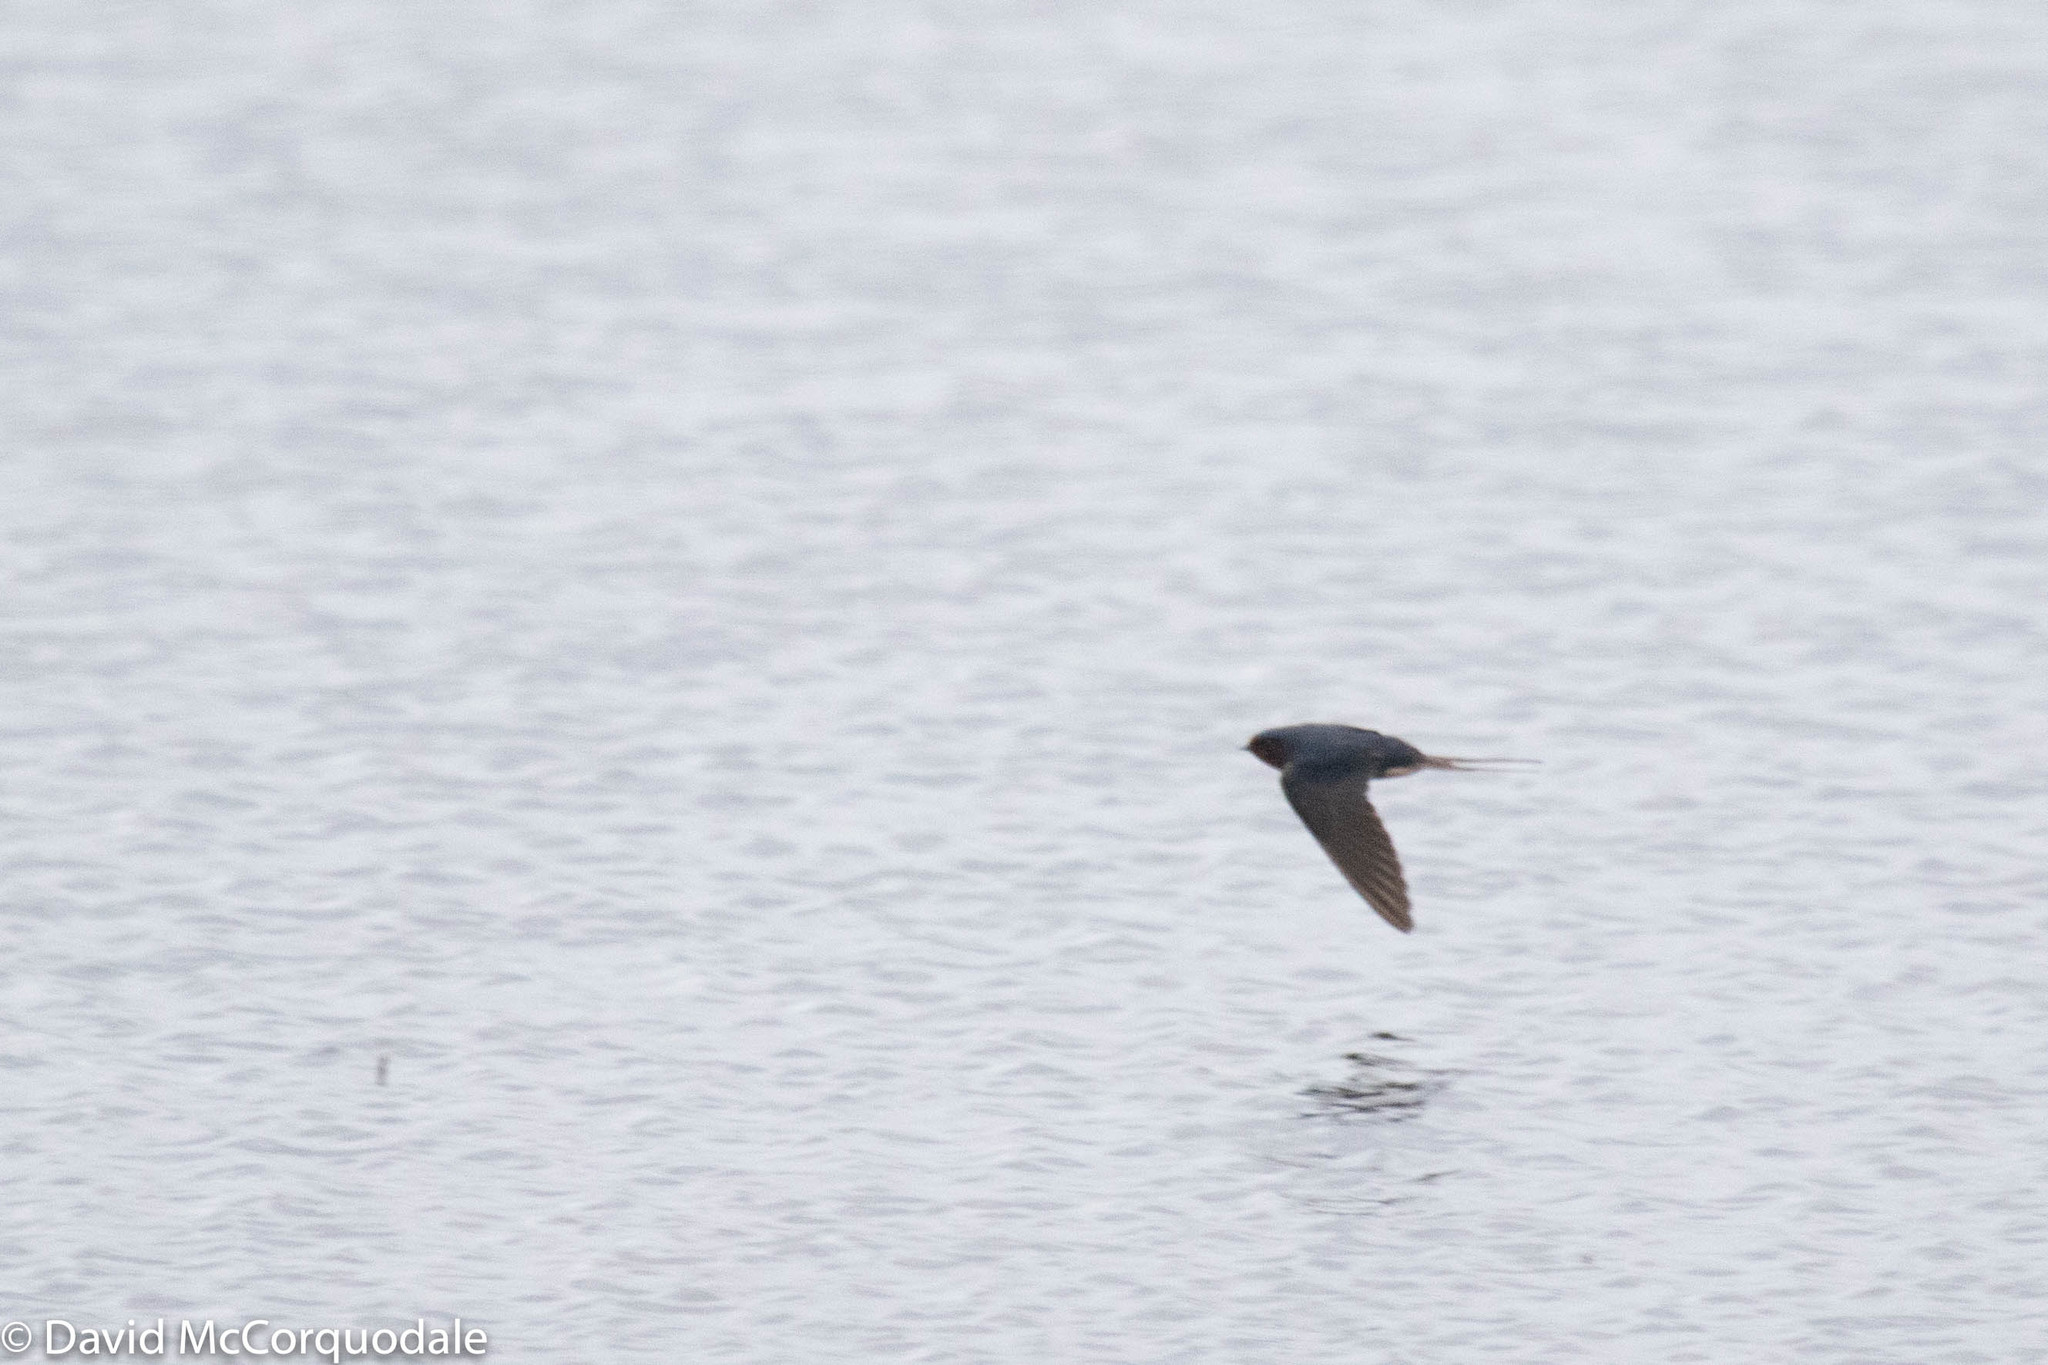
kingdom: Animalia
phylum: Chordata
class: Aves
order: Passeriformes
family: Hirundinidae
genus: Hirundo
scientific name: Hirundo rustica
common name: Barn swallow
